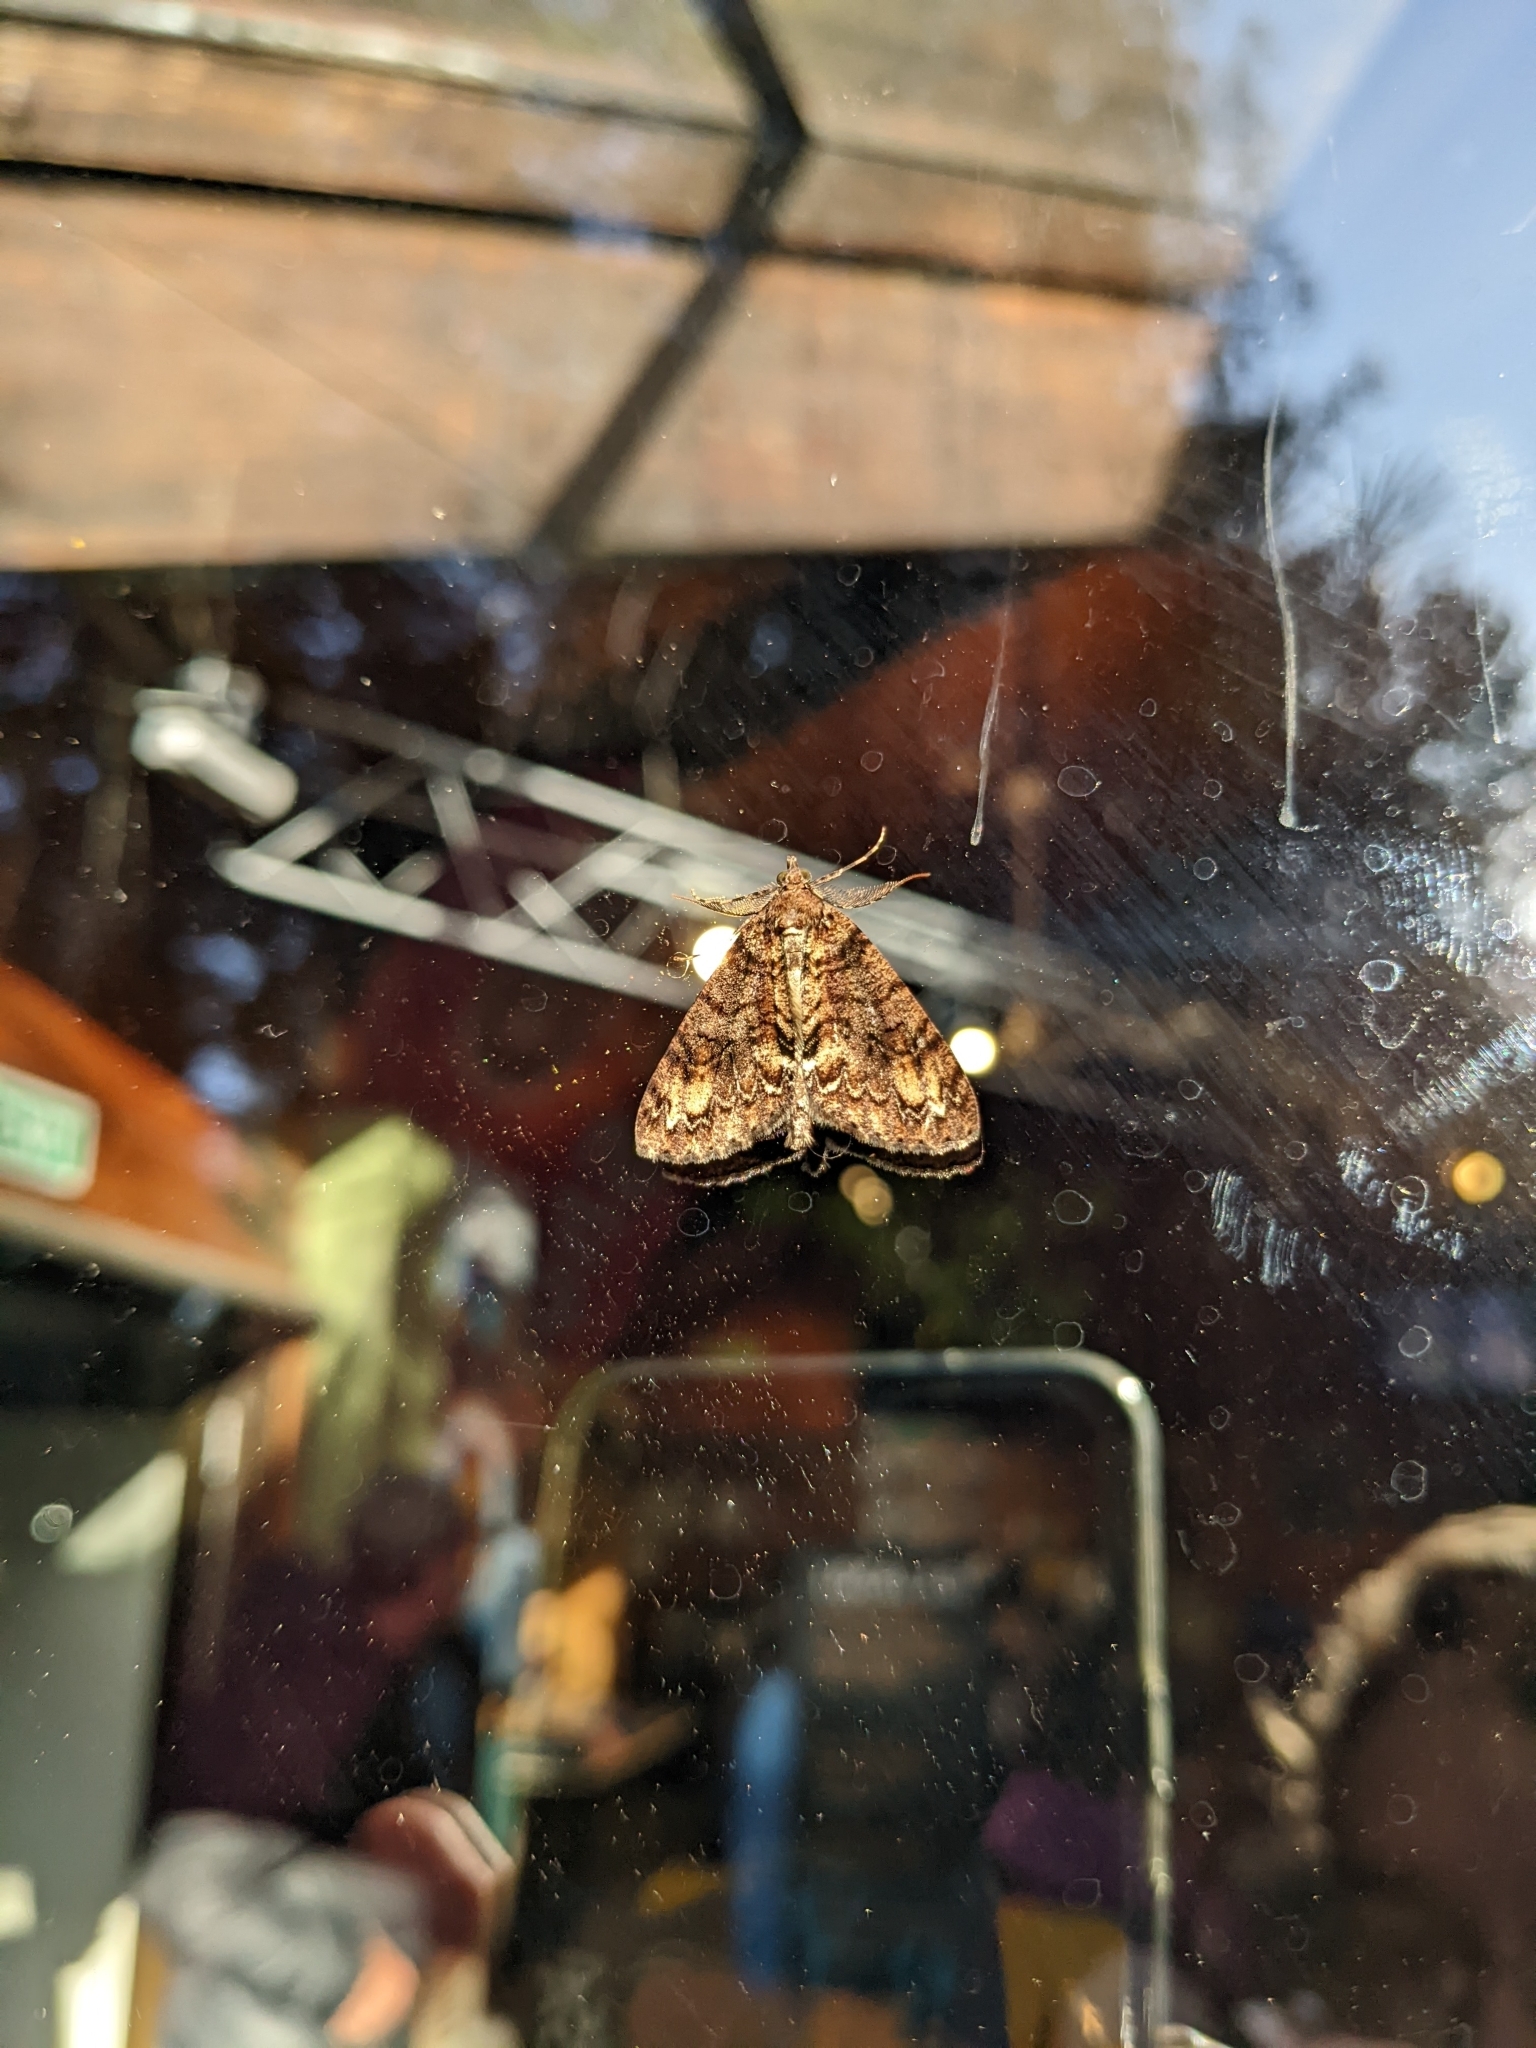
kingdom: Animalia
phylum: Arthropoda
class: Insecta
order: Lepidoptera
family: Geometridae
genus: Pseudocoremia
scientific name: Pseudocoremia suavis
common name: Common forest looper
